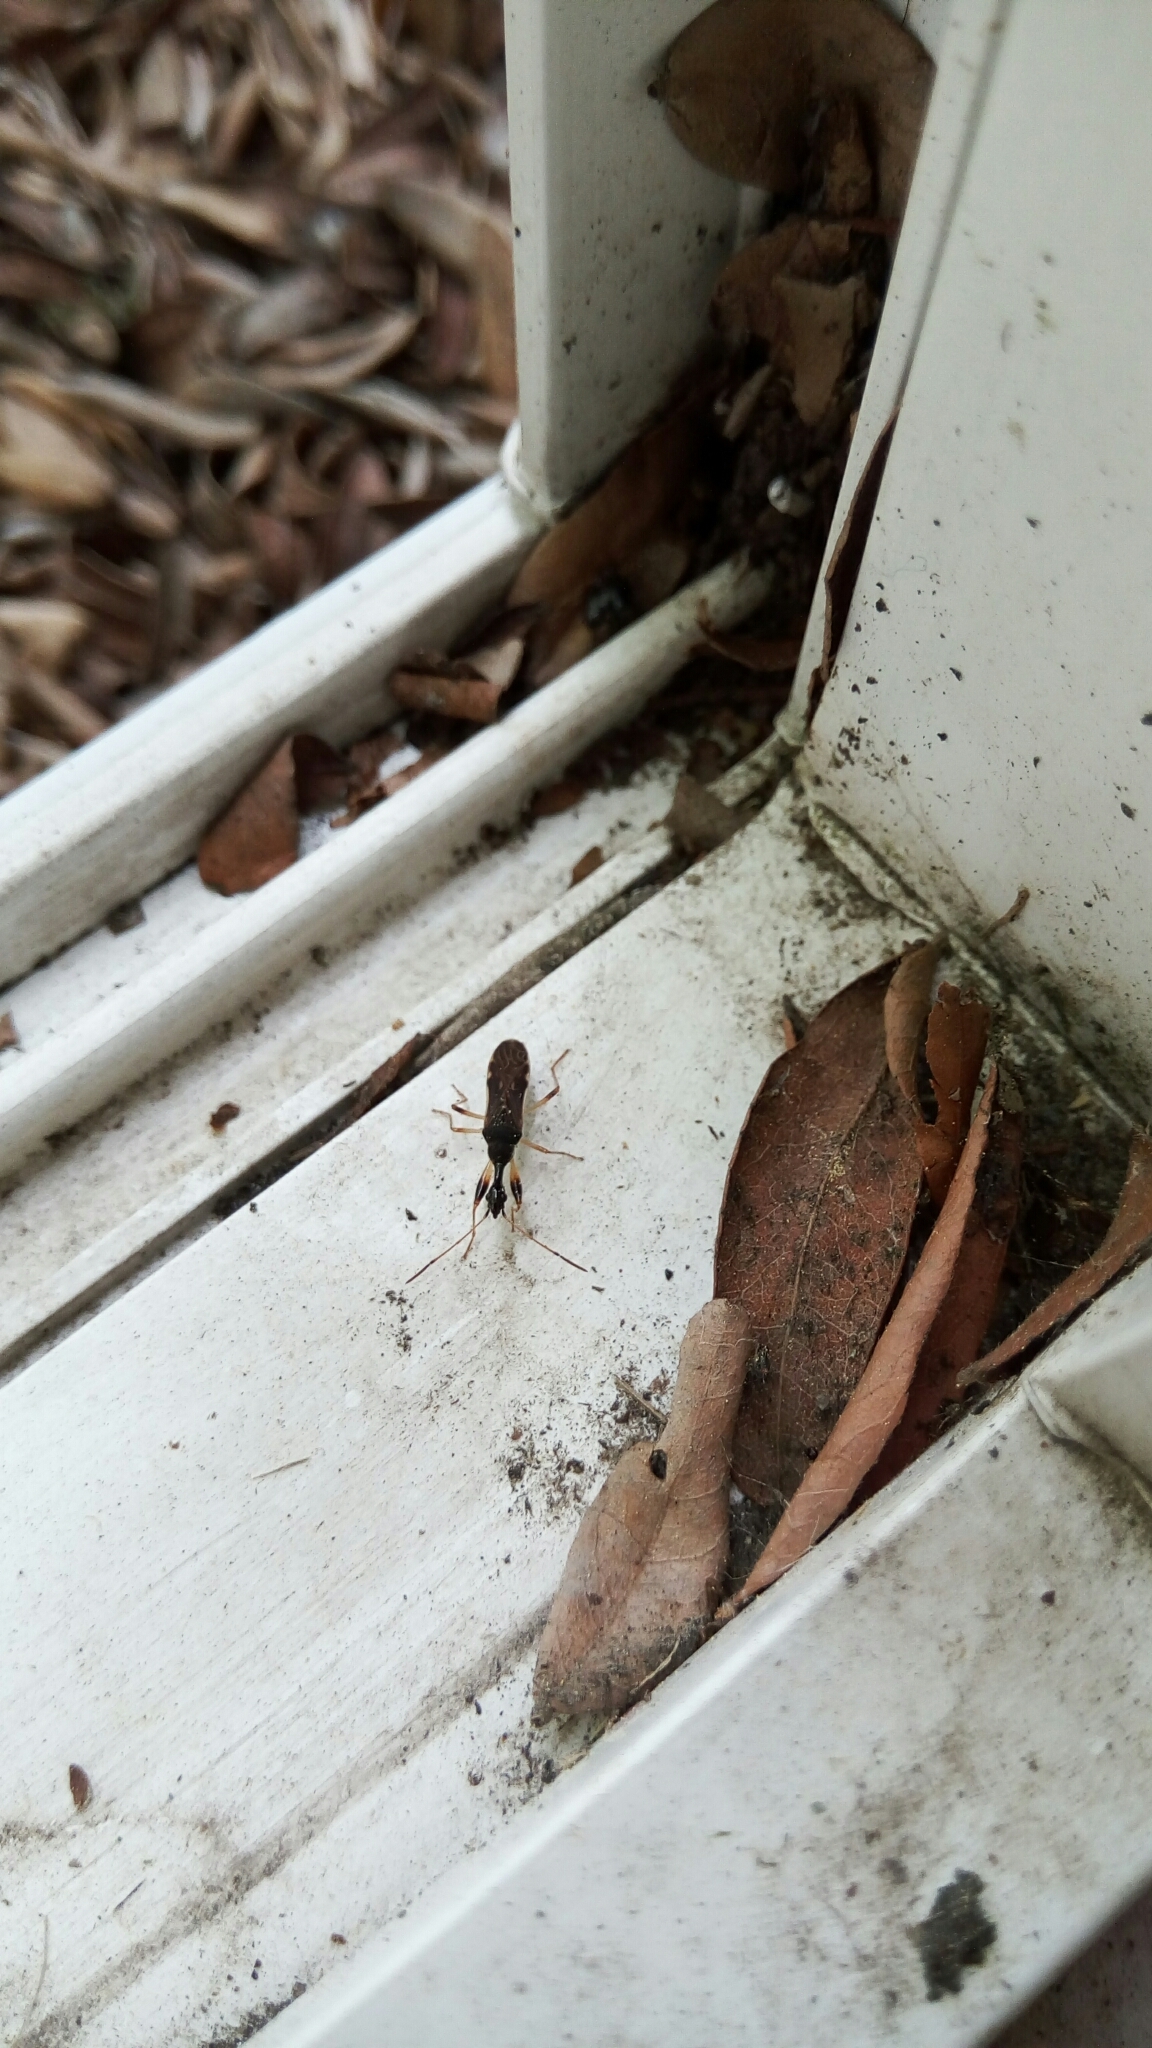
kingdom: Animalia
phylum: Arthropoda
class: Insecta
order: Hemiptera
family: Rhyparochromidae
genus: Myodocha
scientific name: Myodocha serripes
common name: Long-necked seed bug
